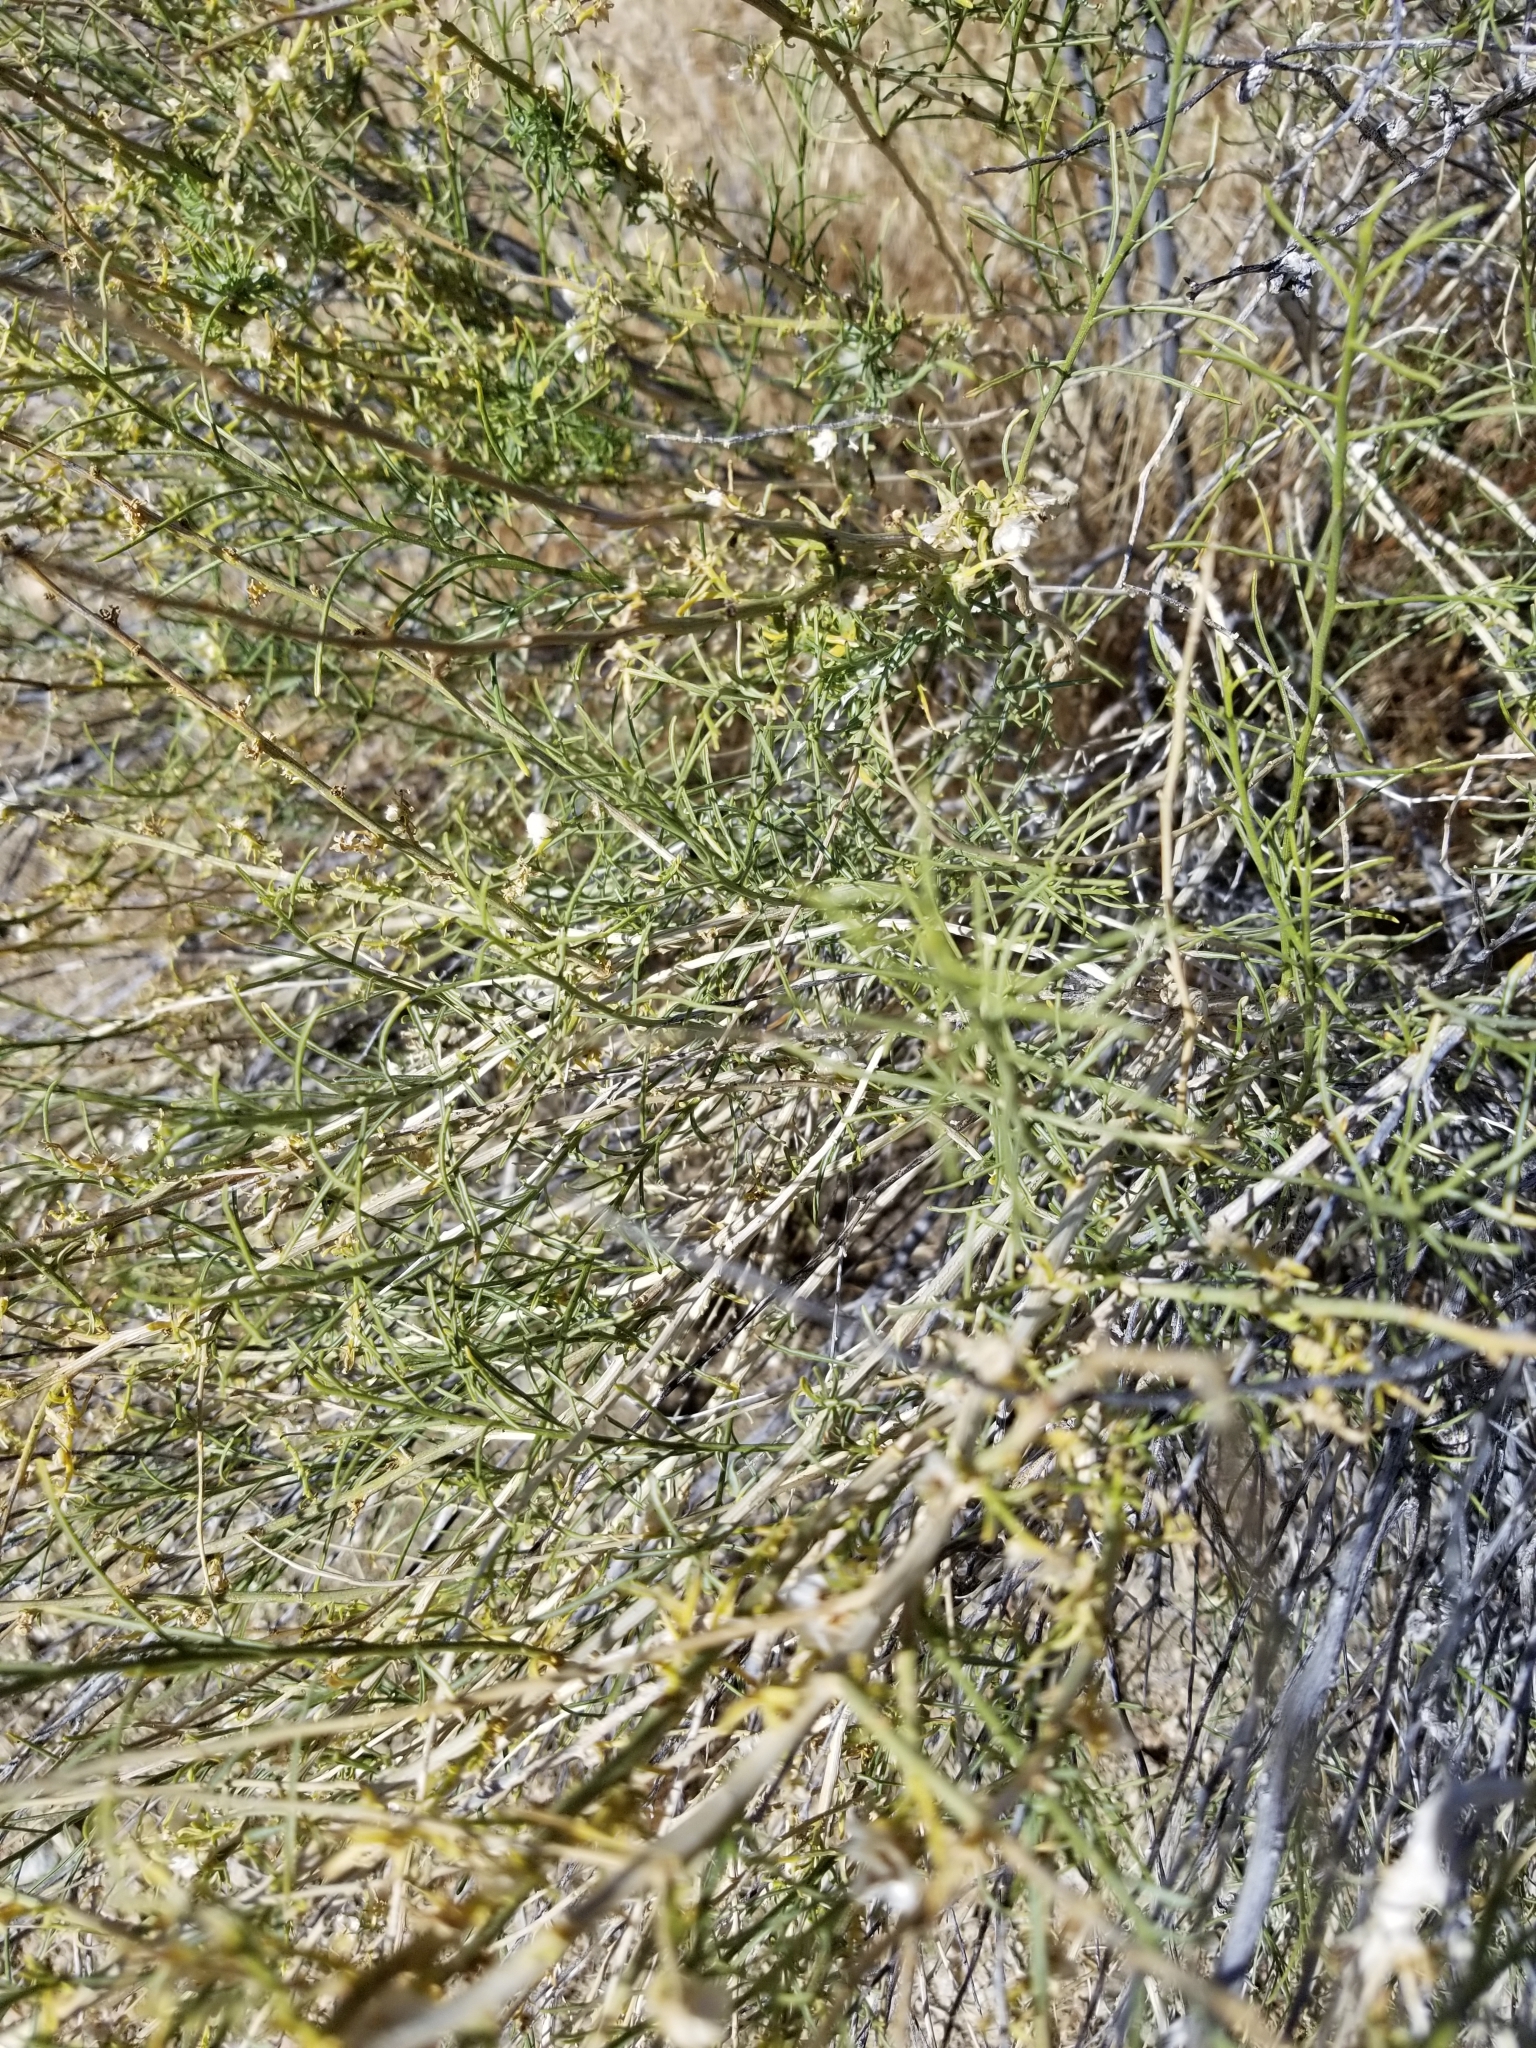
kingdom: Plantae
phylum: Tracheophyta
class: Magnoliopsida
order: Asterales
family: Asteraceae
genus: Ambrosia
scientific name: Ambrosia salsola
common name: Burrobrush
